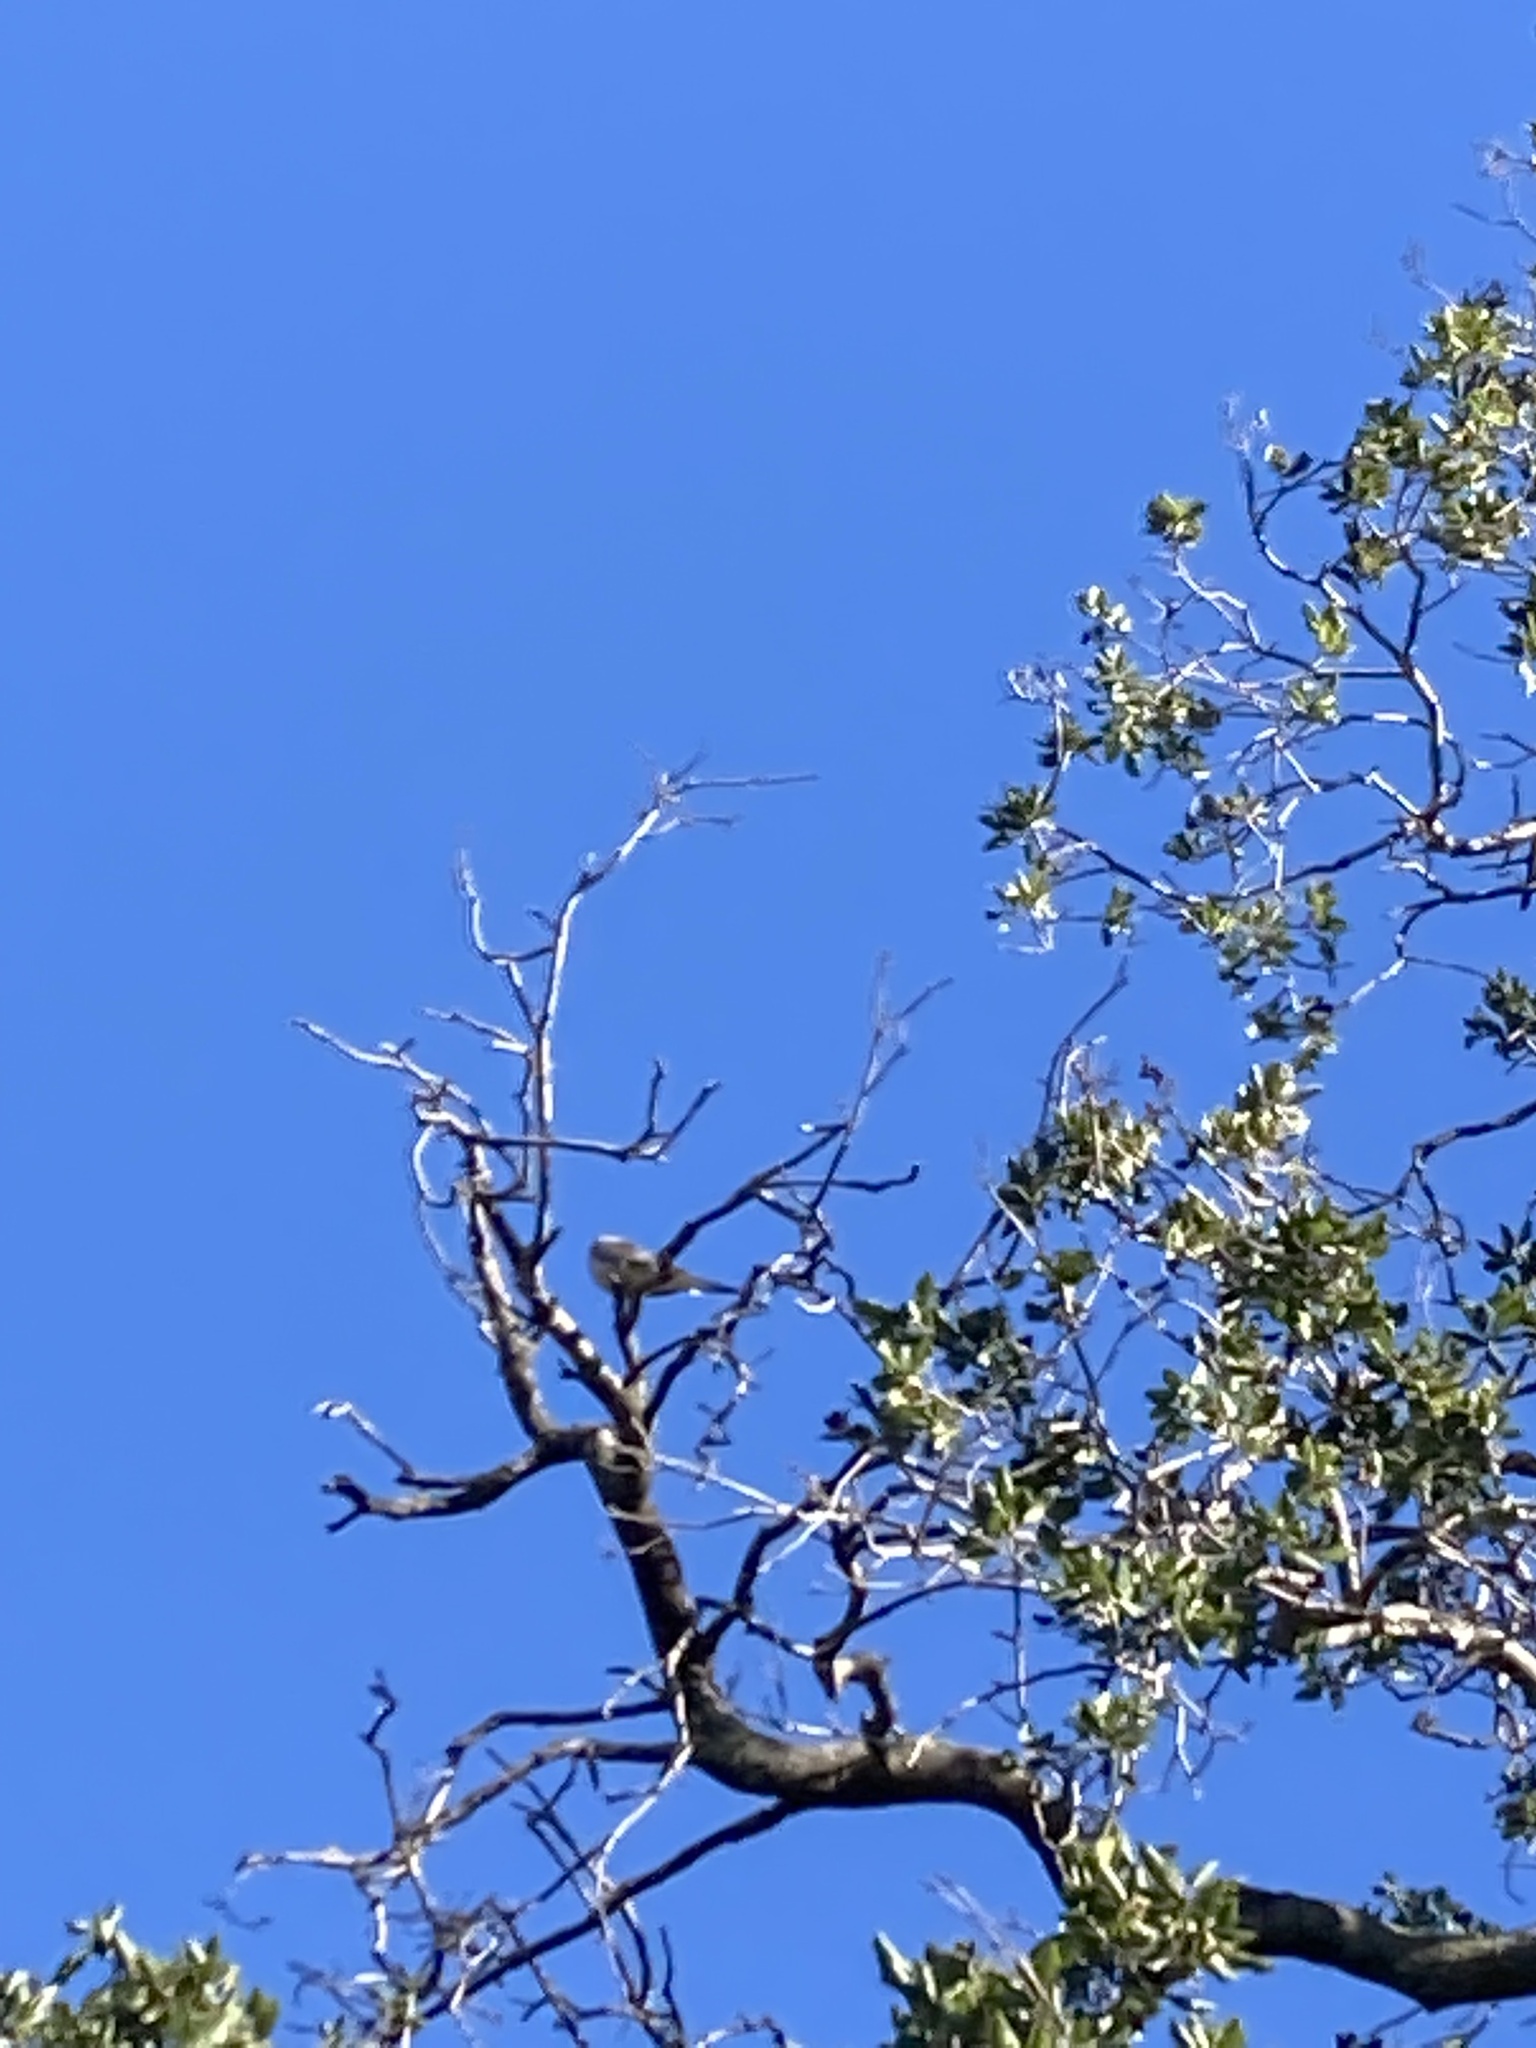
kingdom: Animalia
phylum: Chordata
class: Aves
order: Columbiformes
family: Columbidae
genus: Zenaida
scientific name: Zenaida macroura
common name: Mourning dove
